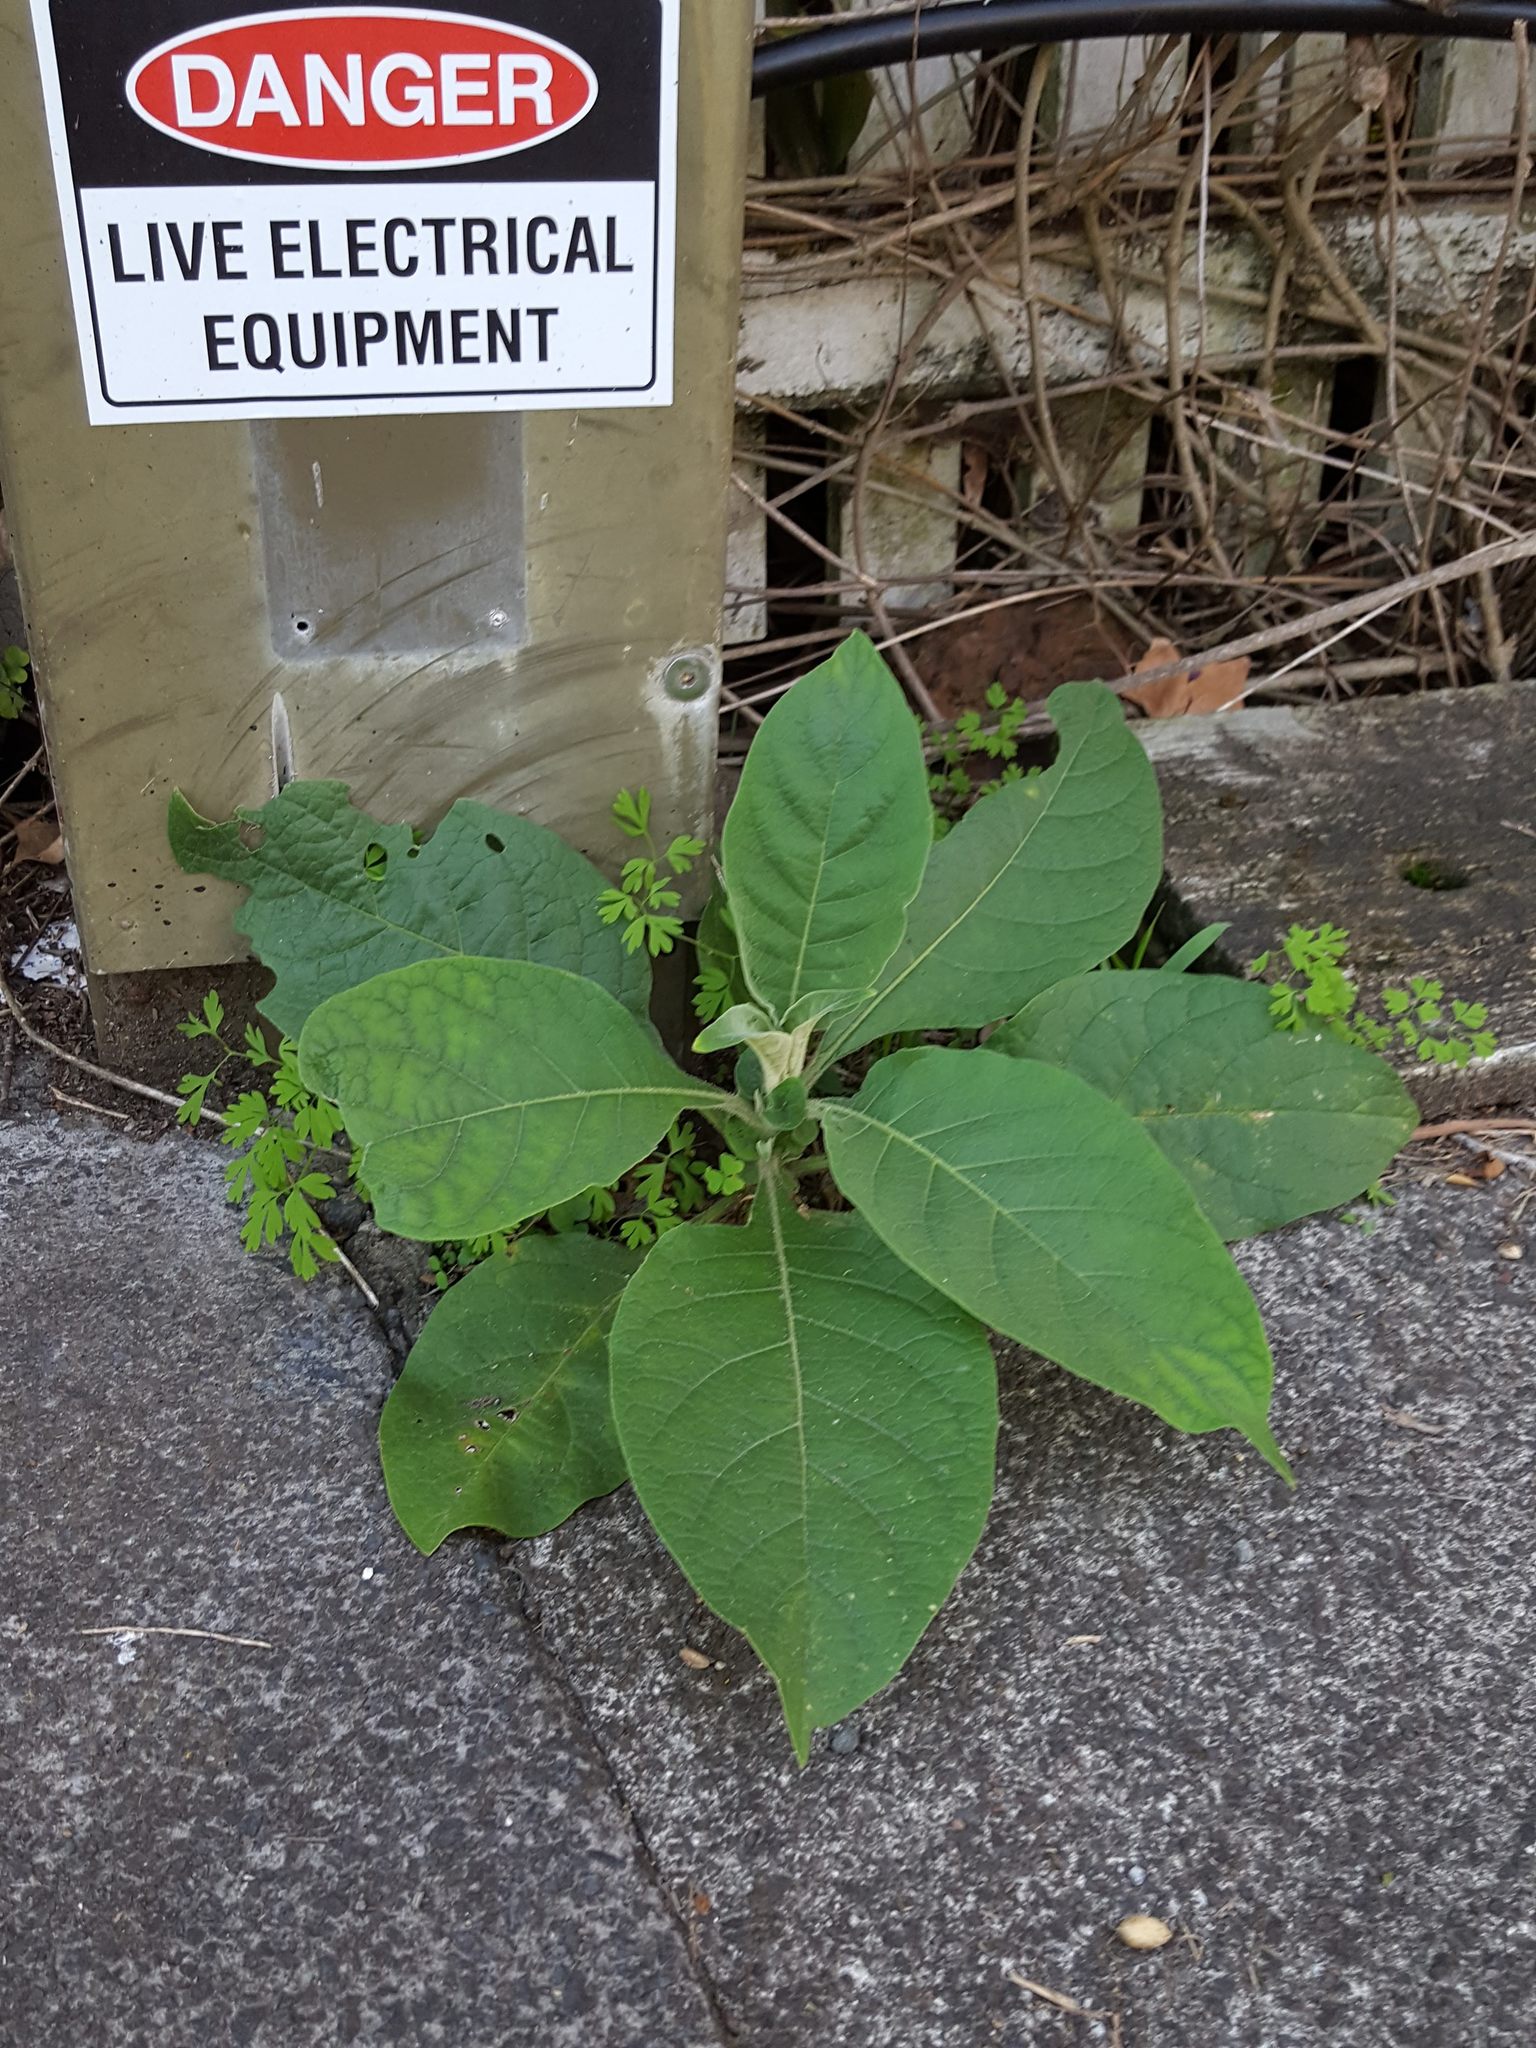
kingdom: Plantae
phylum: Tracheophyta
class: Magnoliopsida
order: Solanales
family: Solanaceae
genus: Solanum
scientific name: Solanum mauritianum
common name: Earleaf nightshade
